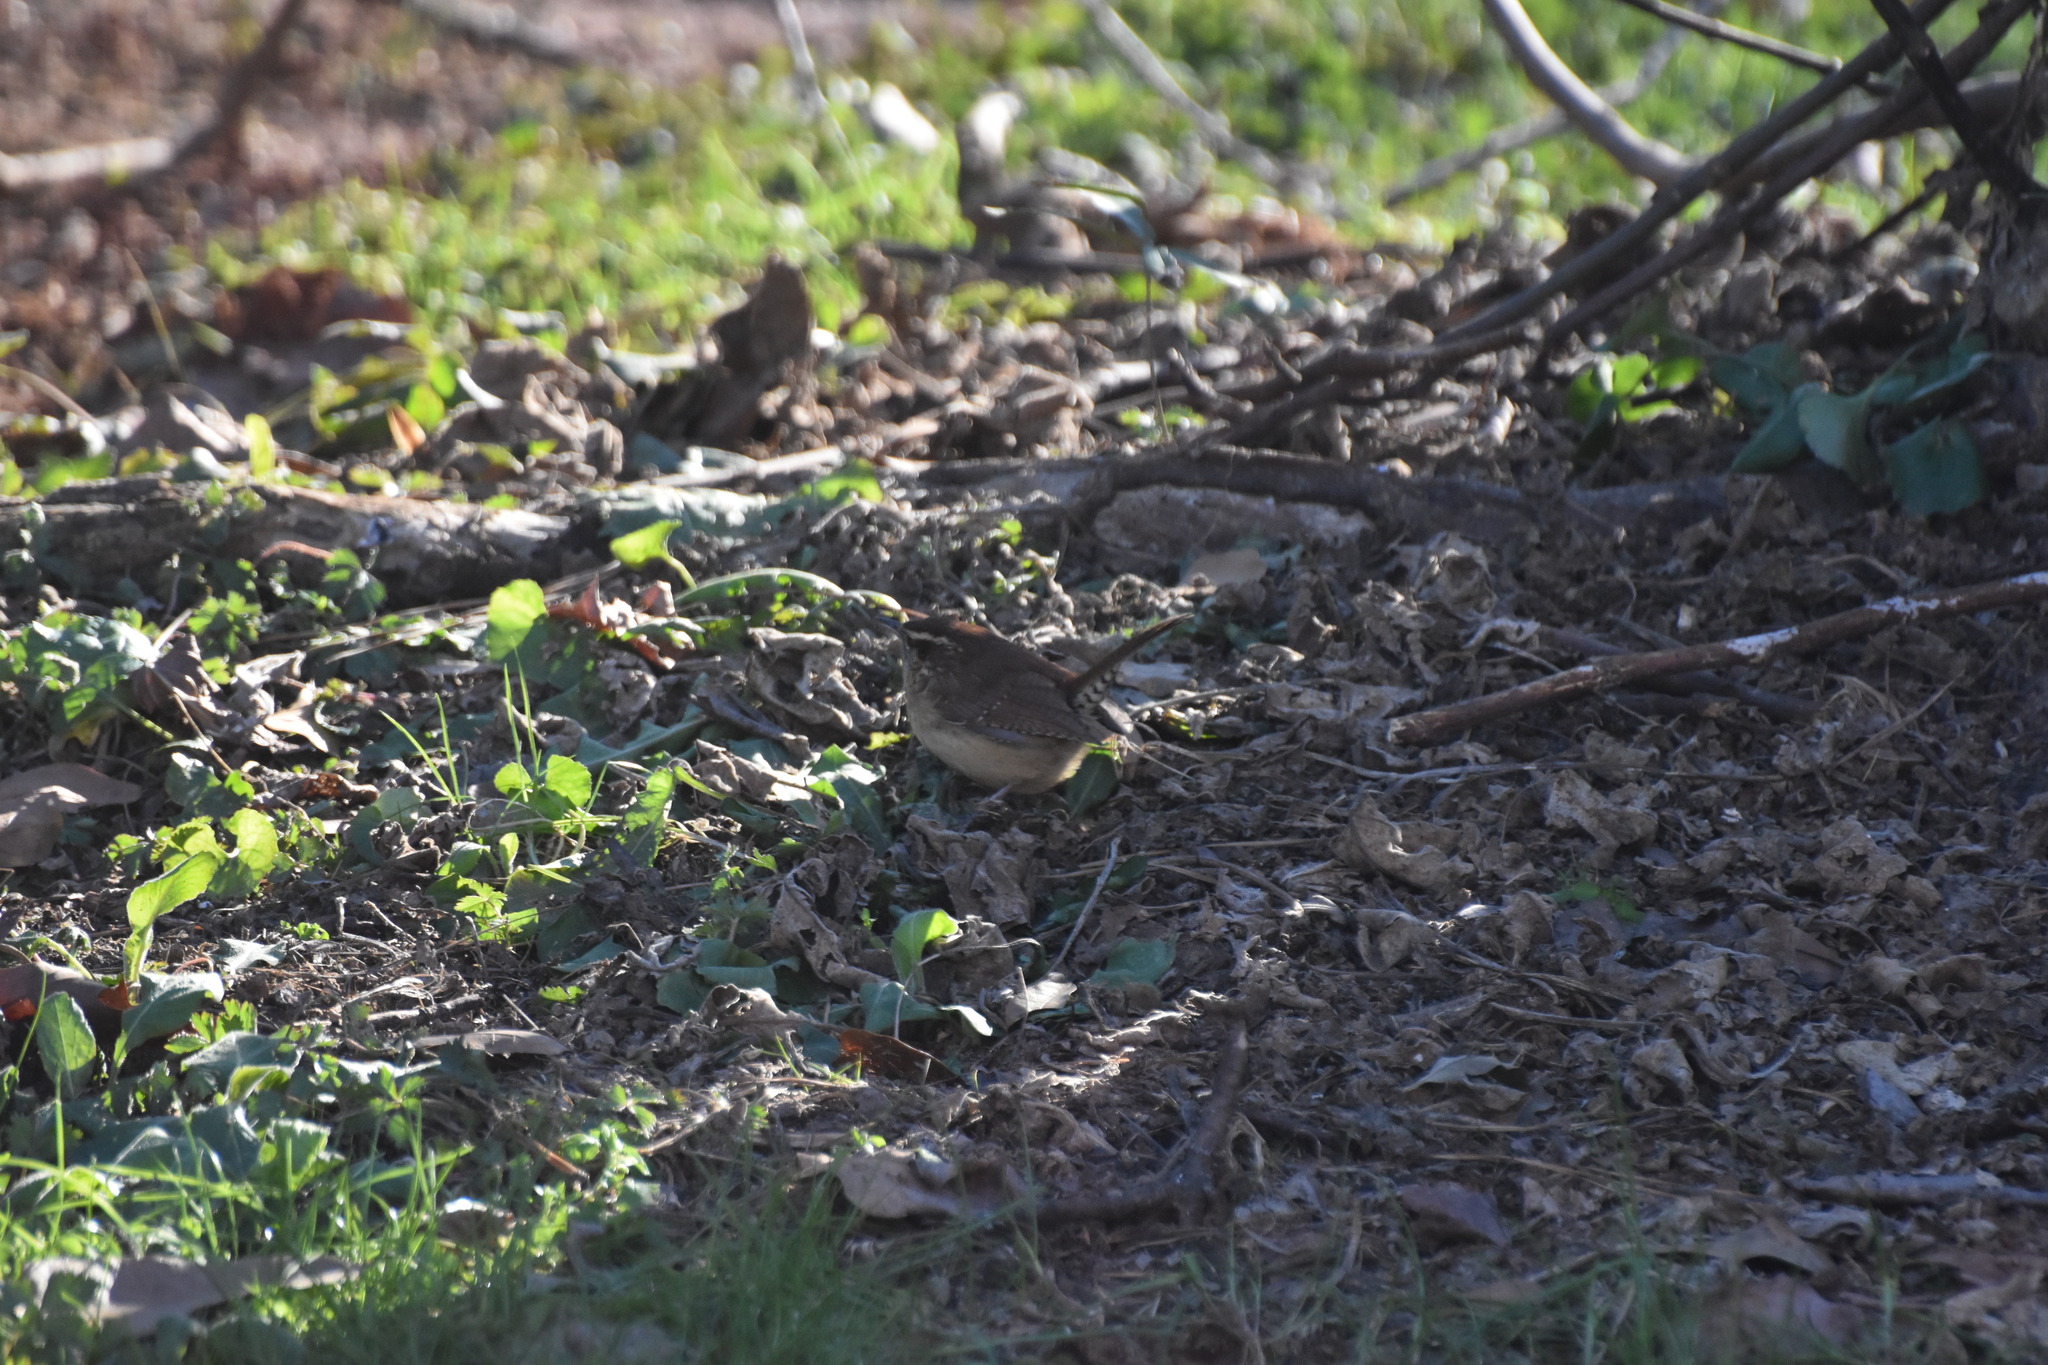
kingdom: Animalia
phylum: Chordata
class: Aves
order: Passeriformes
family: Troglodytidae
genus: Thryothorus
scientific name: Thryothorus ludovicianus
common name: Carolina wren
